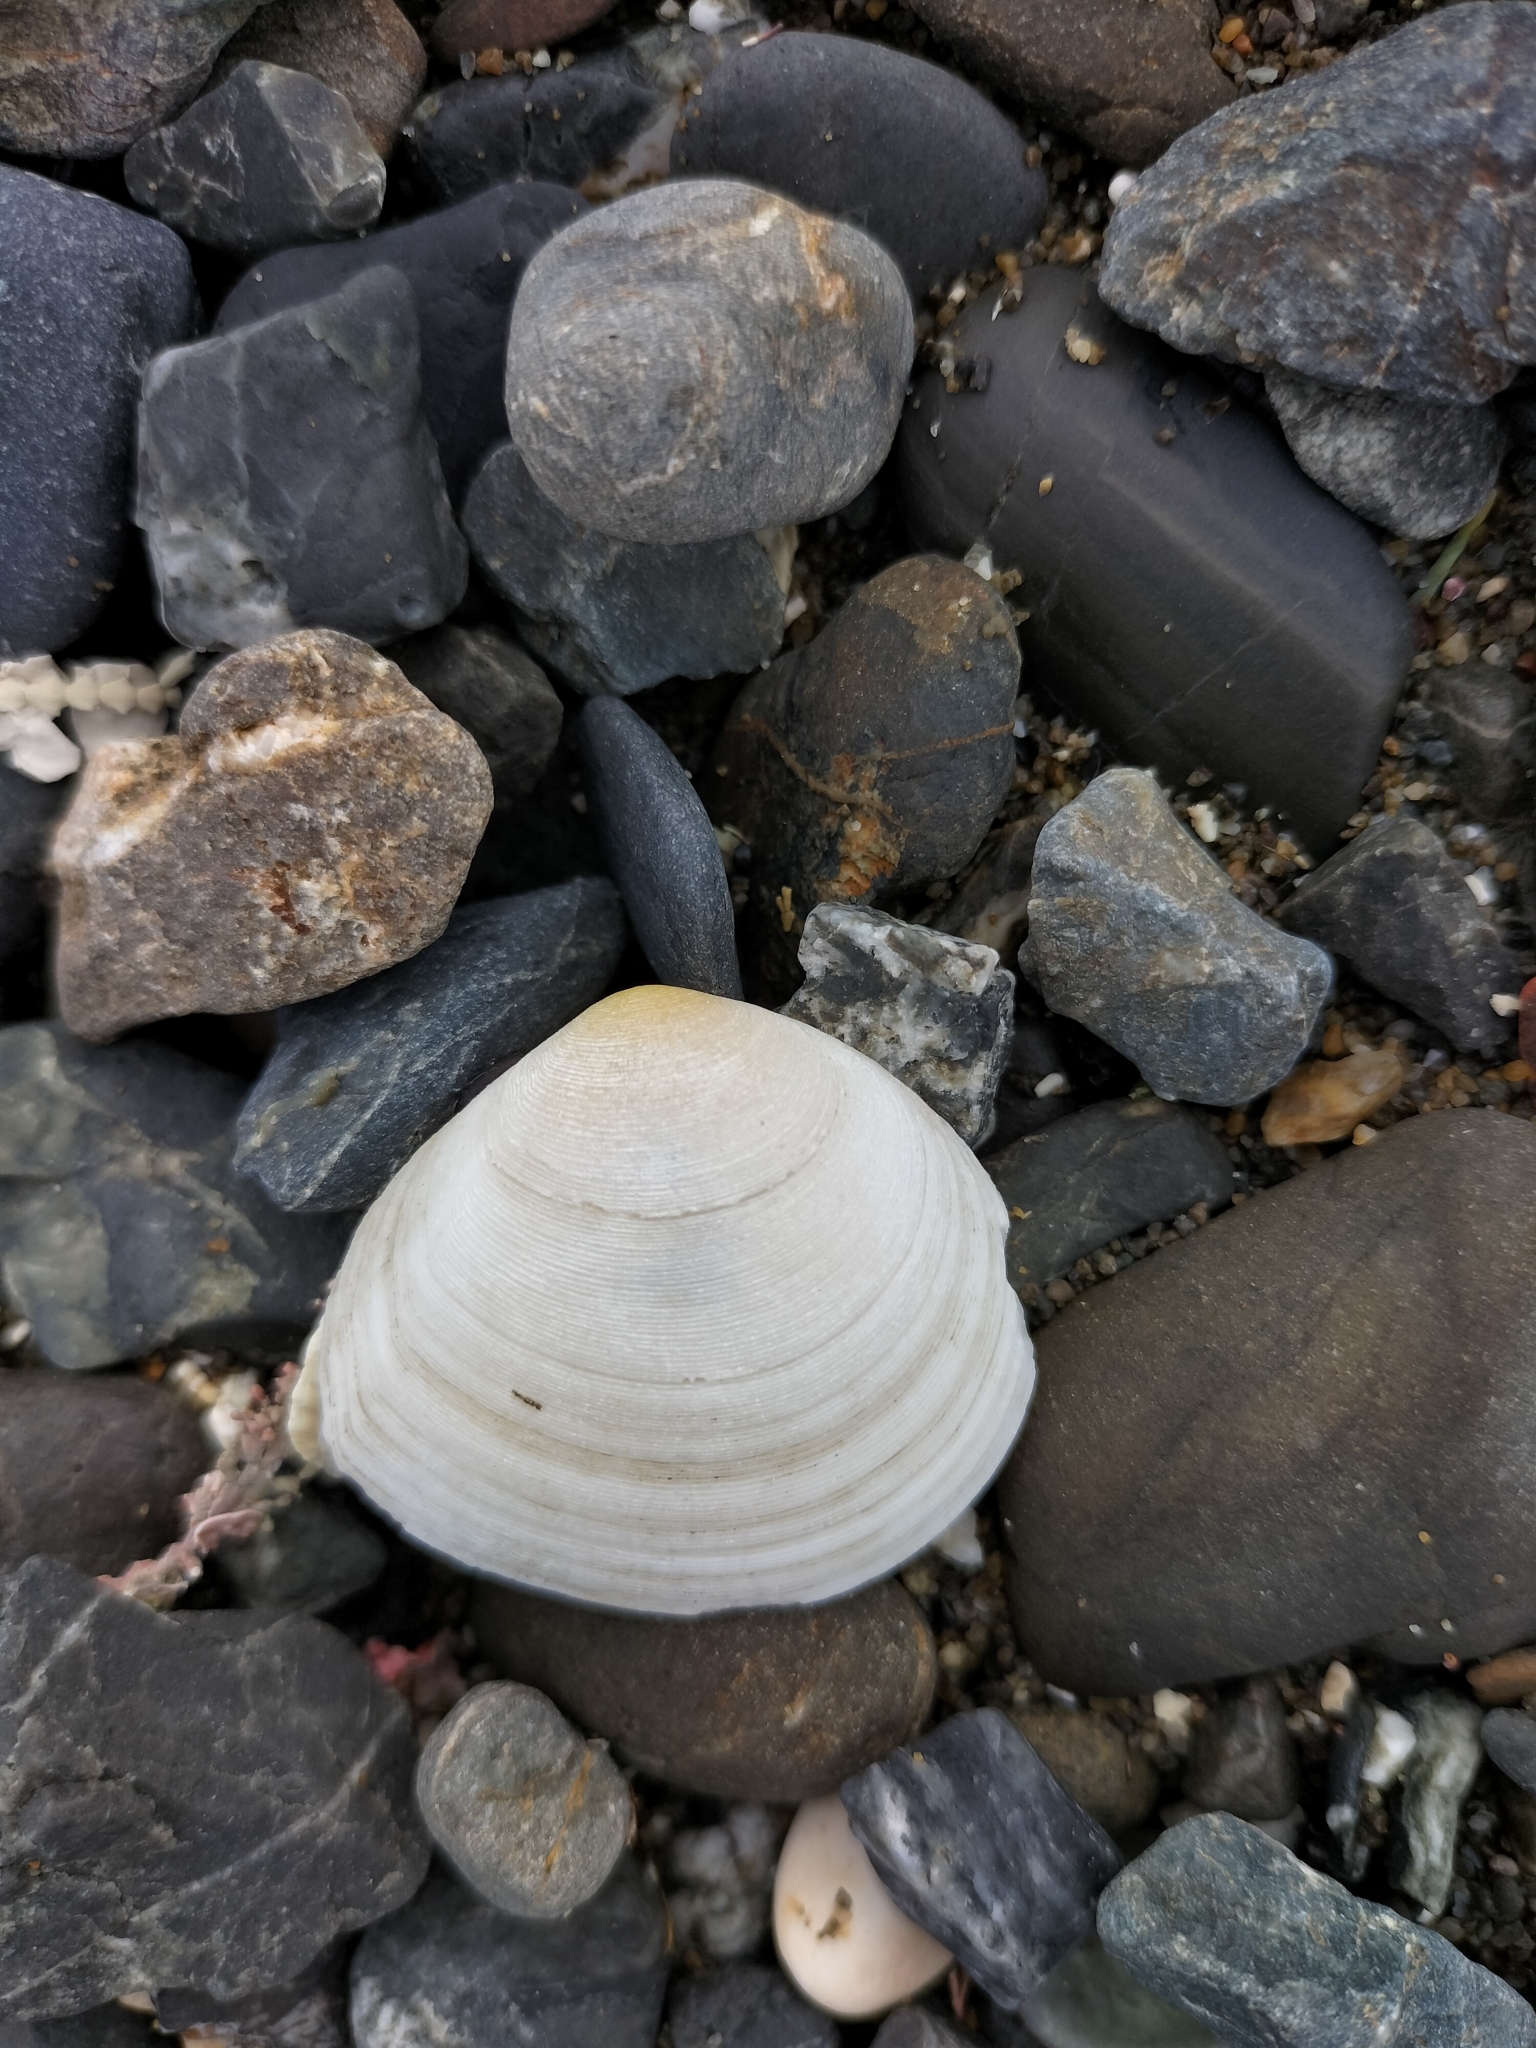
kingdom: Animalia
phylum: Mollusca
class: Bivalvia
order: Cardiida
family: Tellinidae
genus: Pseudarcopagia
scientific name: Pseudarcopagia disculus
